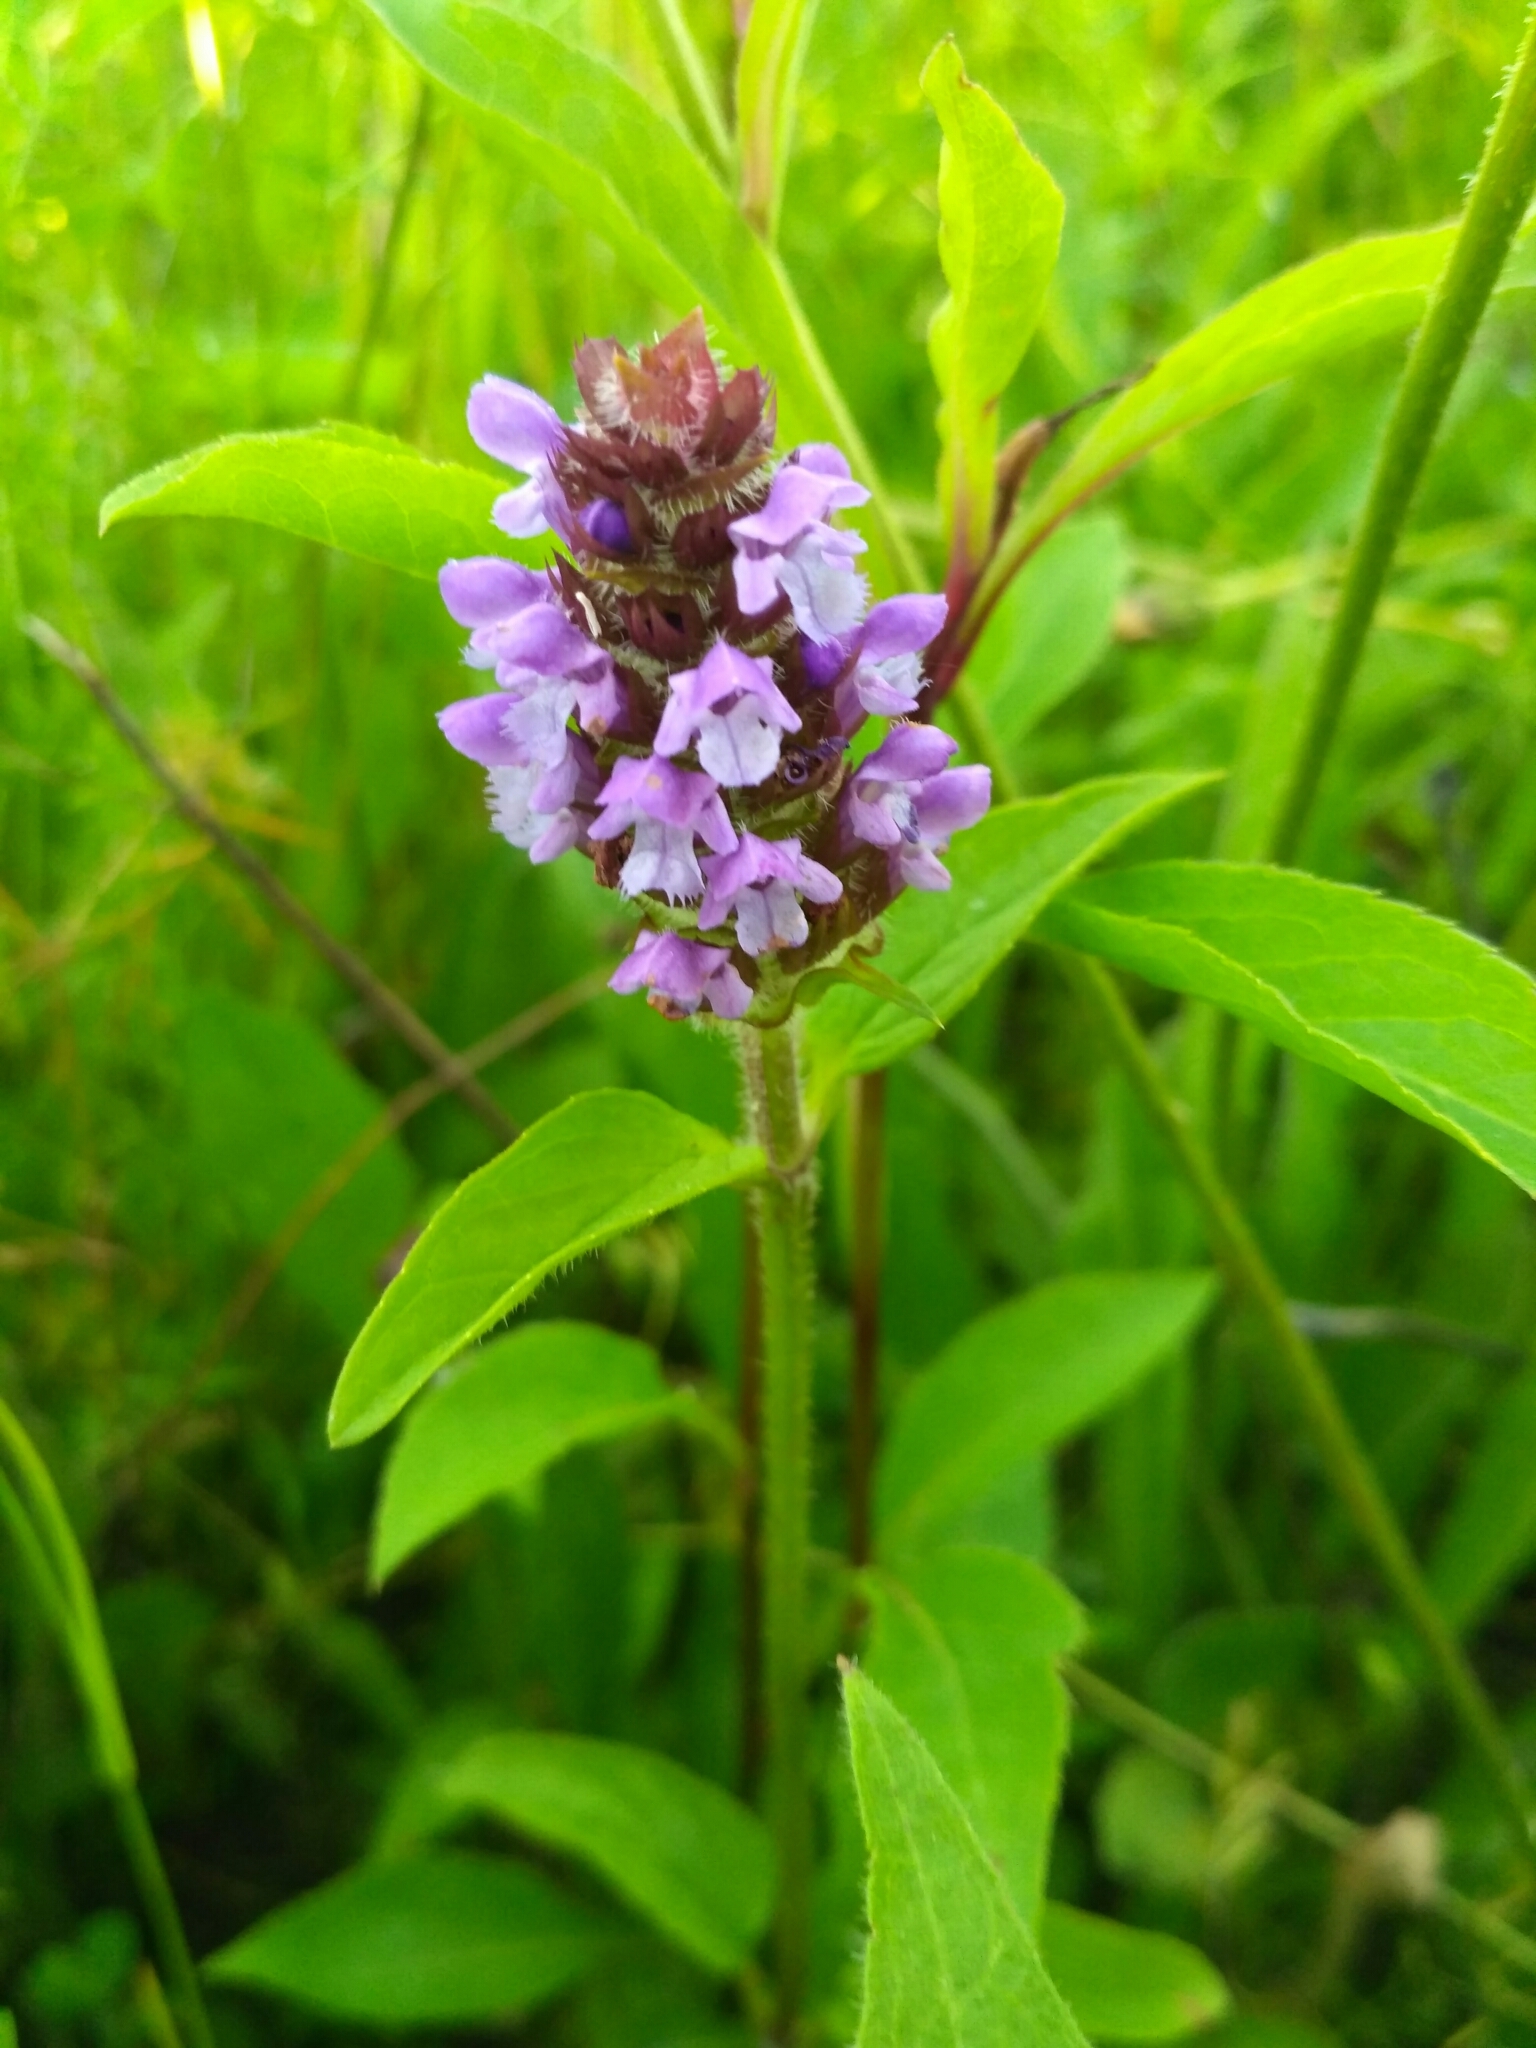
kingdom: Plantae
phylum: Tracheophyta
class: Magnoliopsida
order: Lamiales
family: Lamiaceae
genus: Prunella
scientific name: Prunella vulgaris
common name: Heal-all
